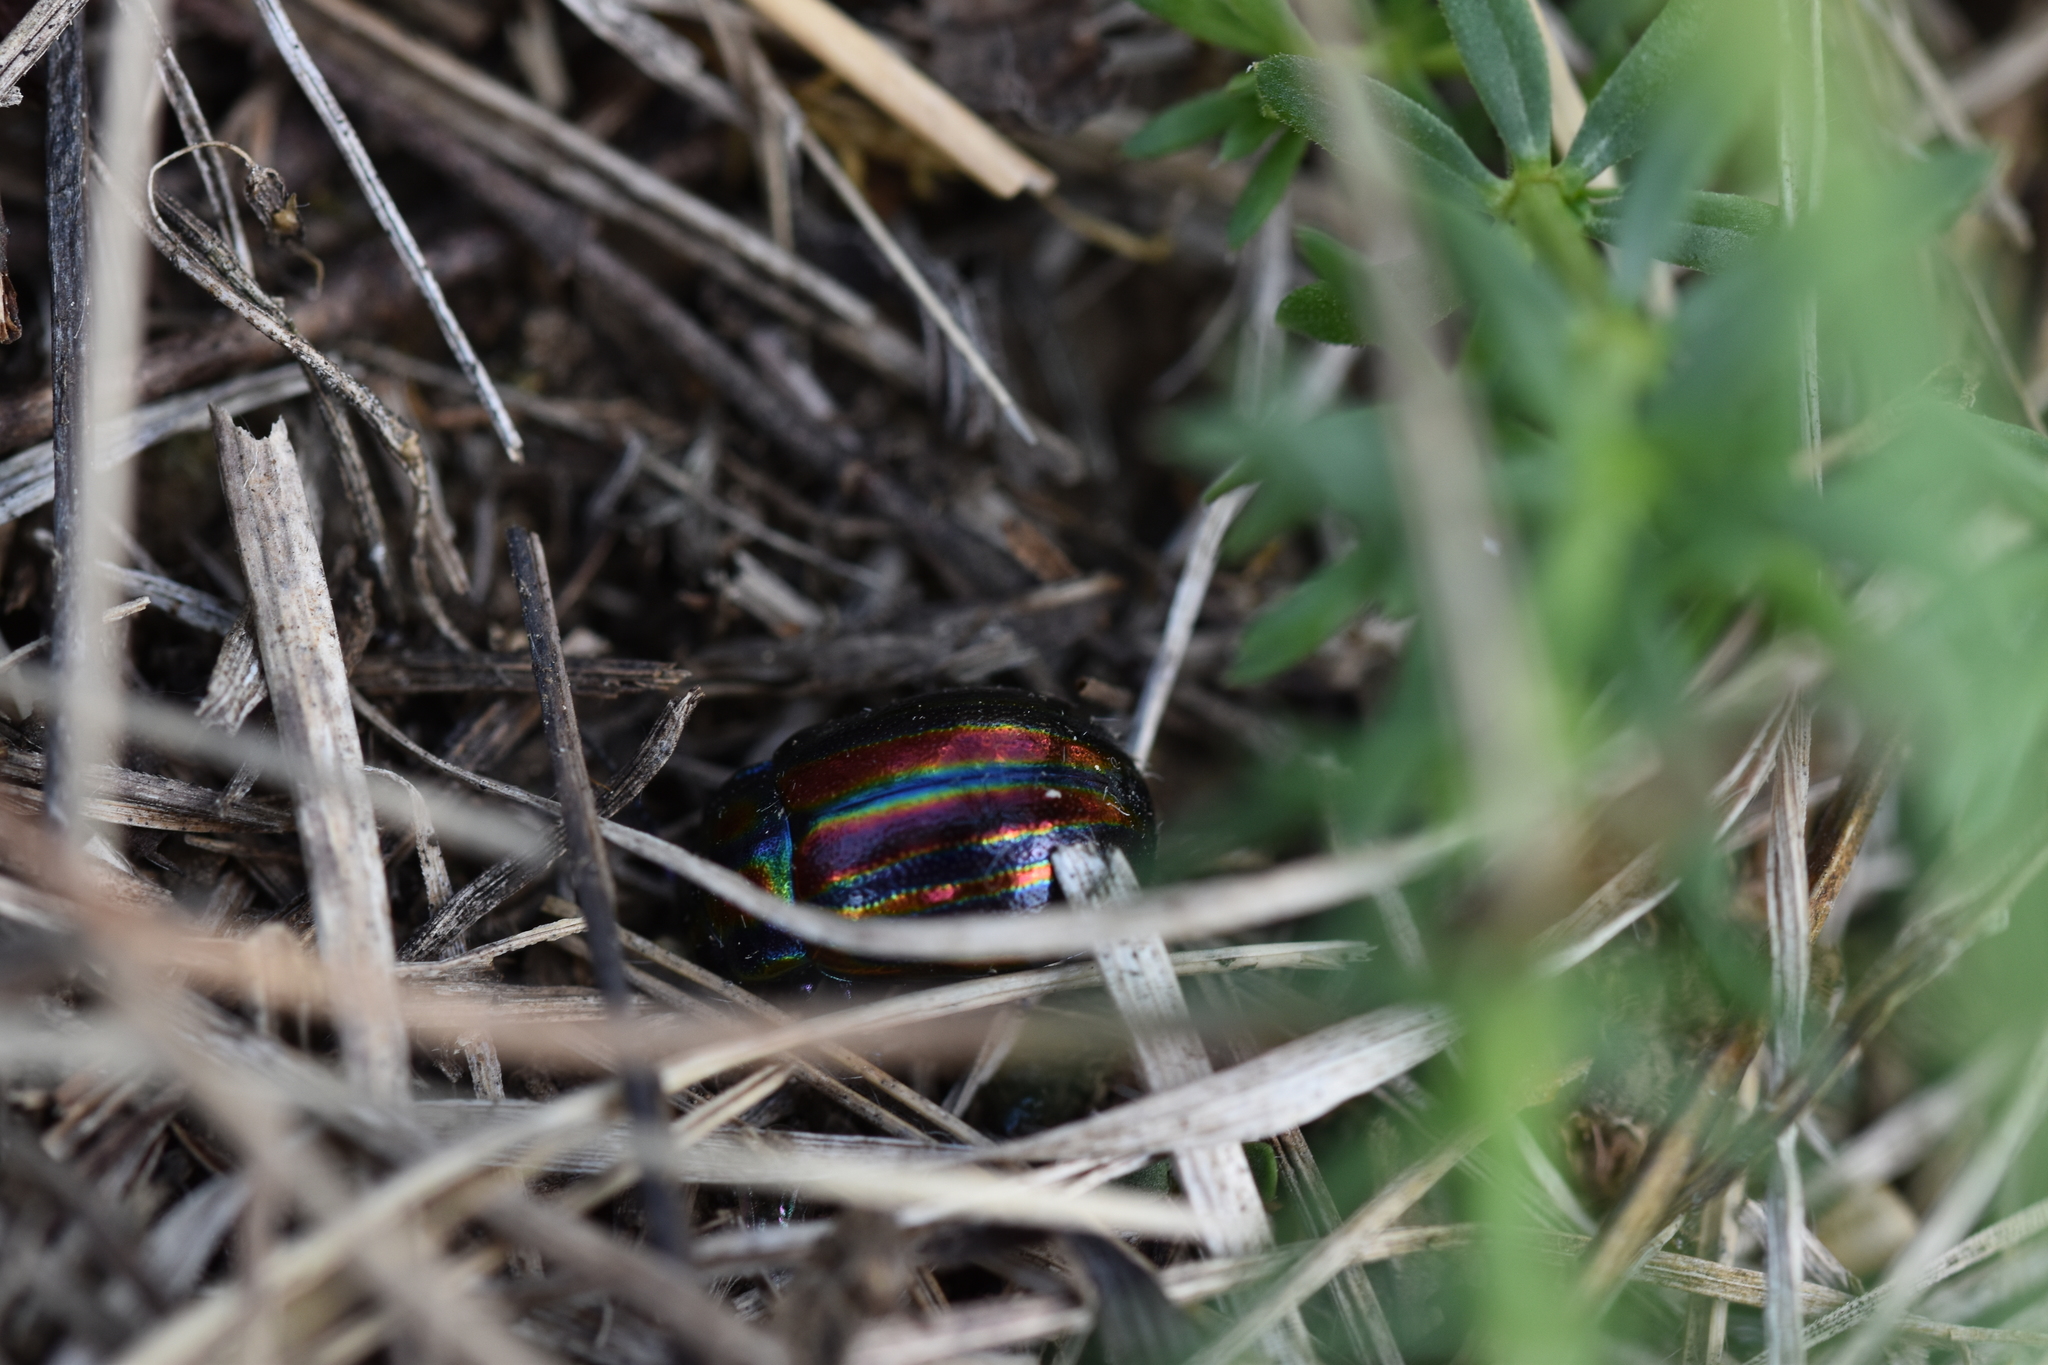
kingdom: Animalia
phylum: Arthropoda
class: Insecta
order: Coleoptera
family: Chrysomelidae
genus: Chrysolina
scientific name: Chrysolina cerealis
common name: Rainbow leaf beetle
